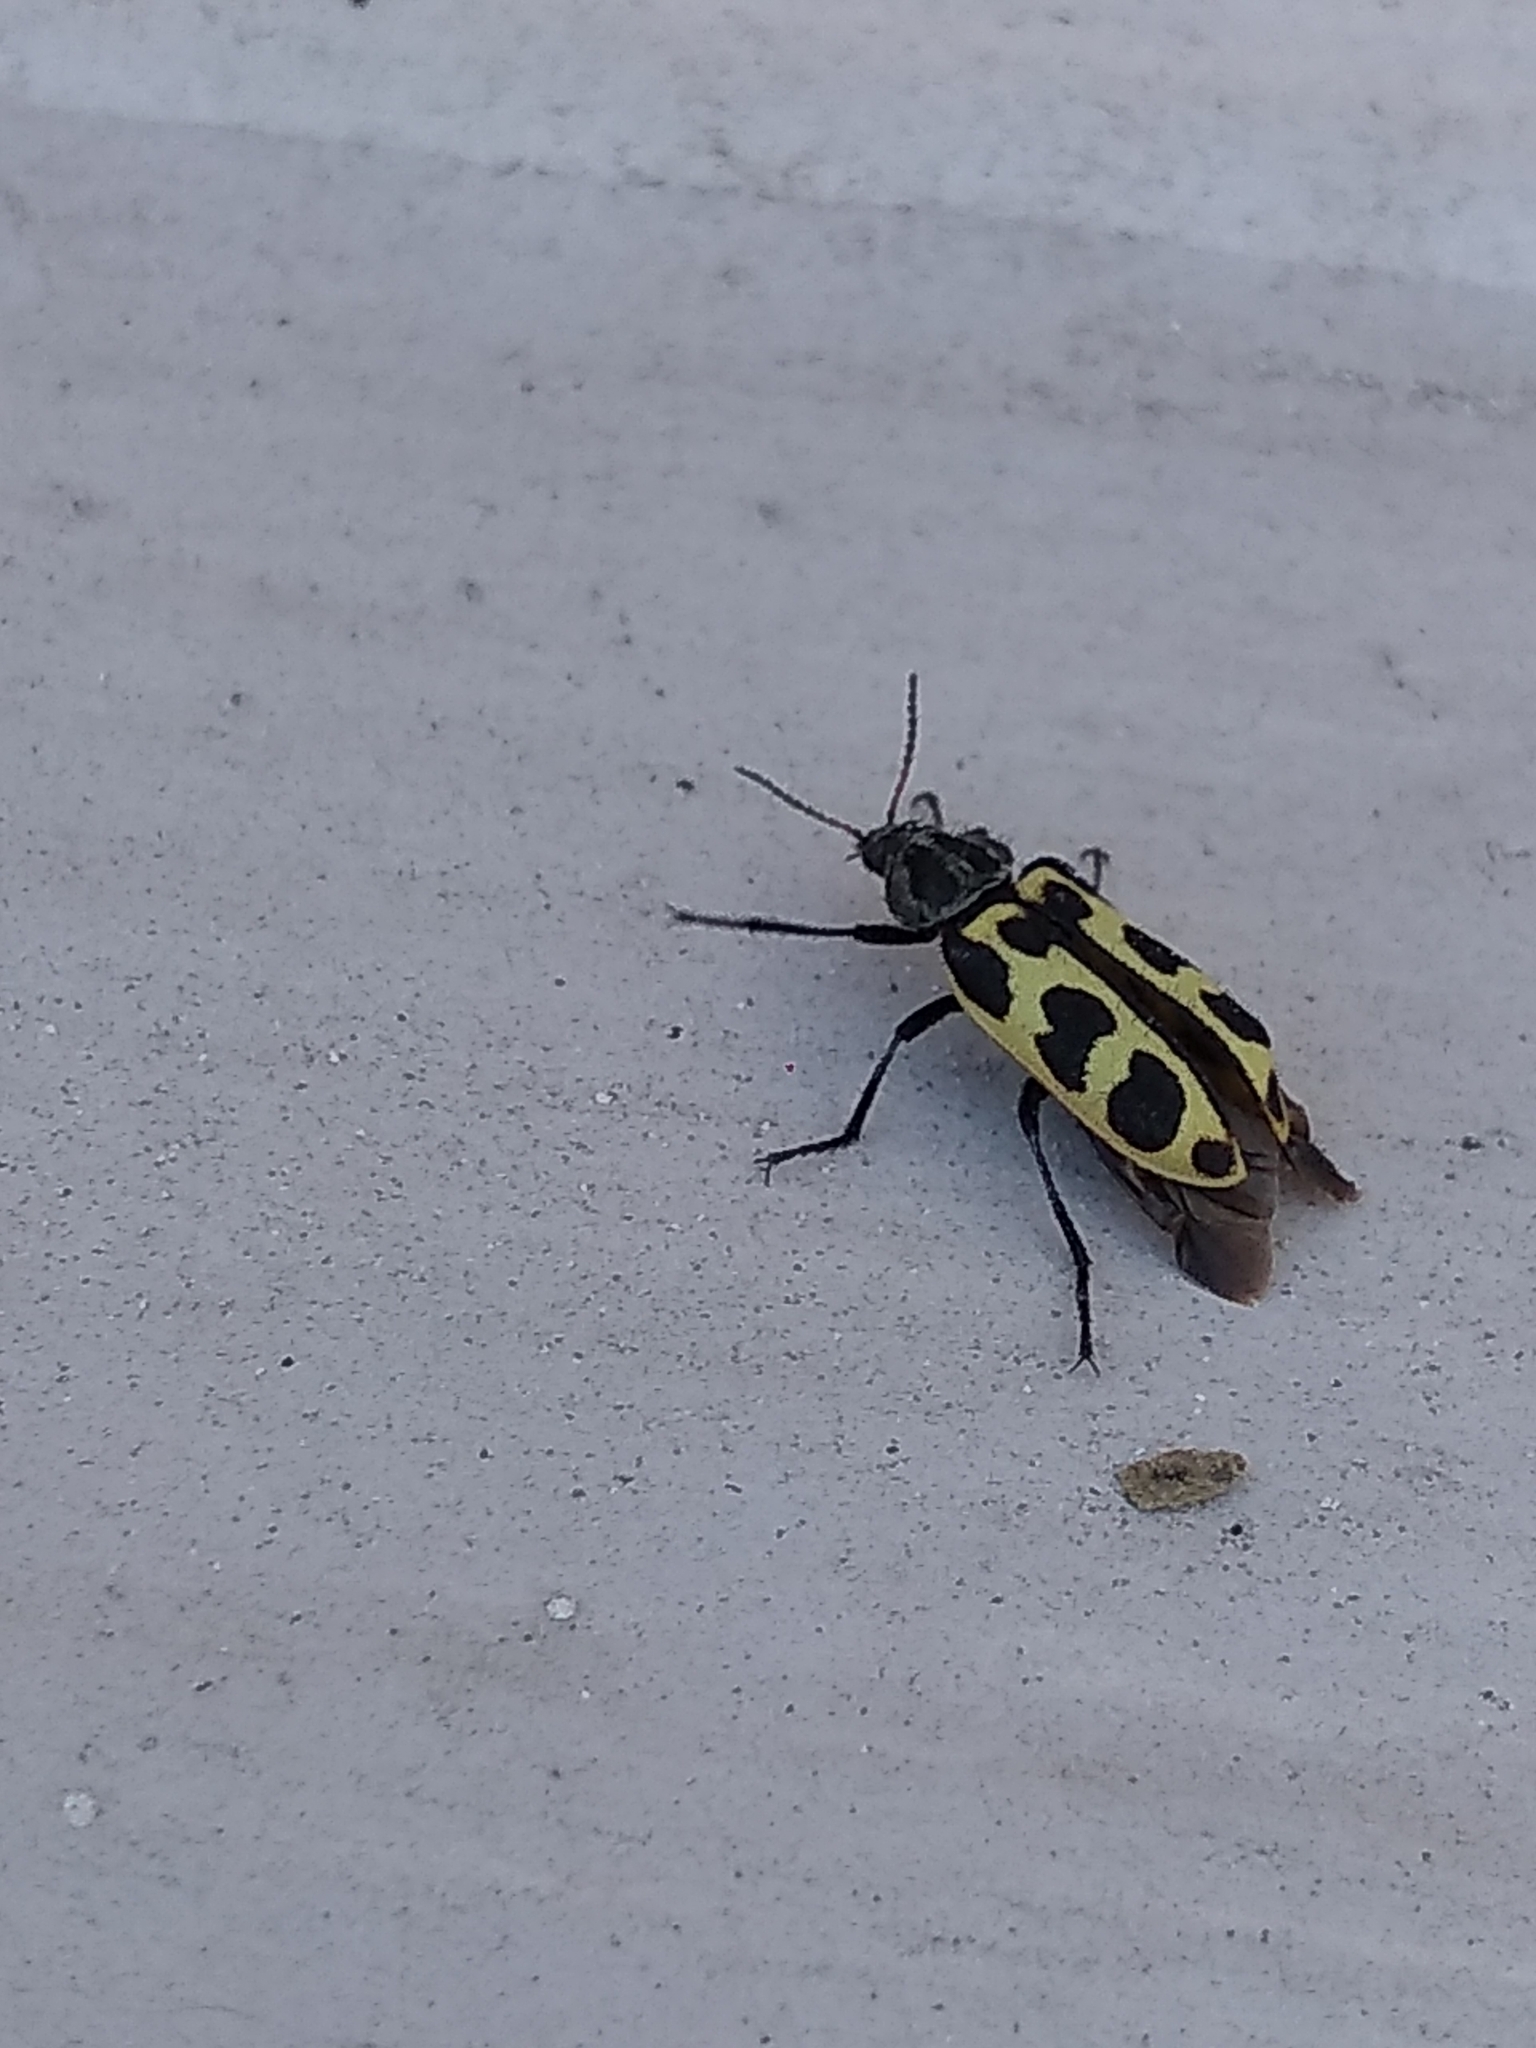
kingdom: Animalia
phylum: Arthropoda
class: Insecta
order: Coleoptera
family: Melyridae
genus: Astylus
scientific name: Astylus atromaculatus
